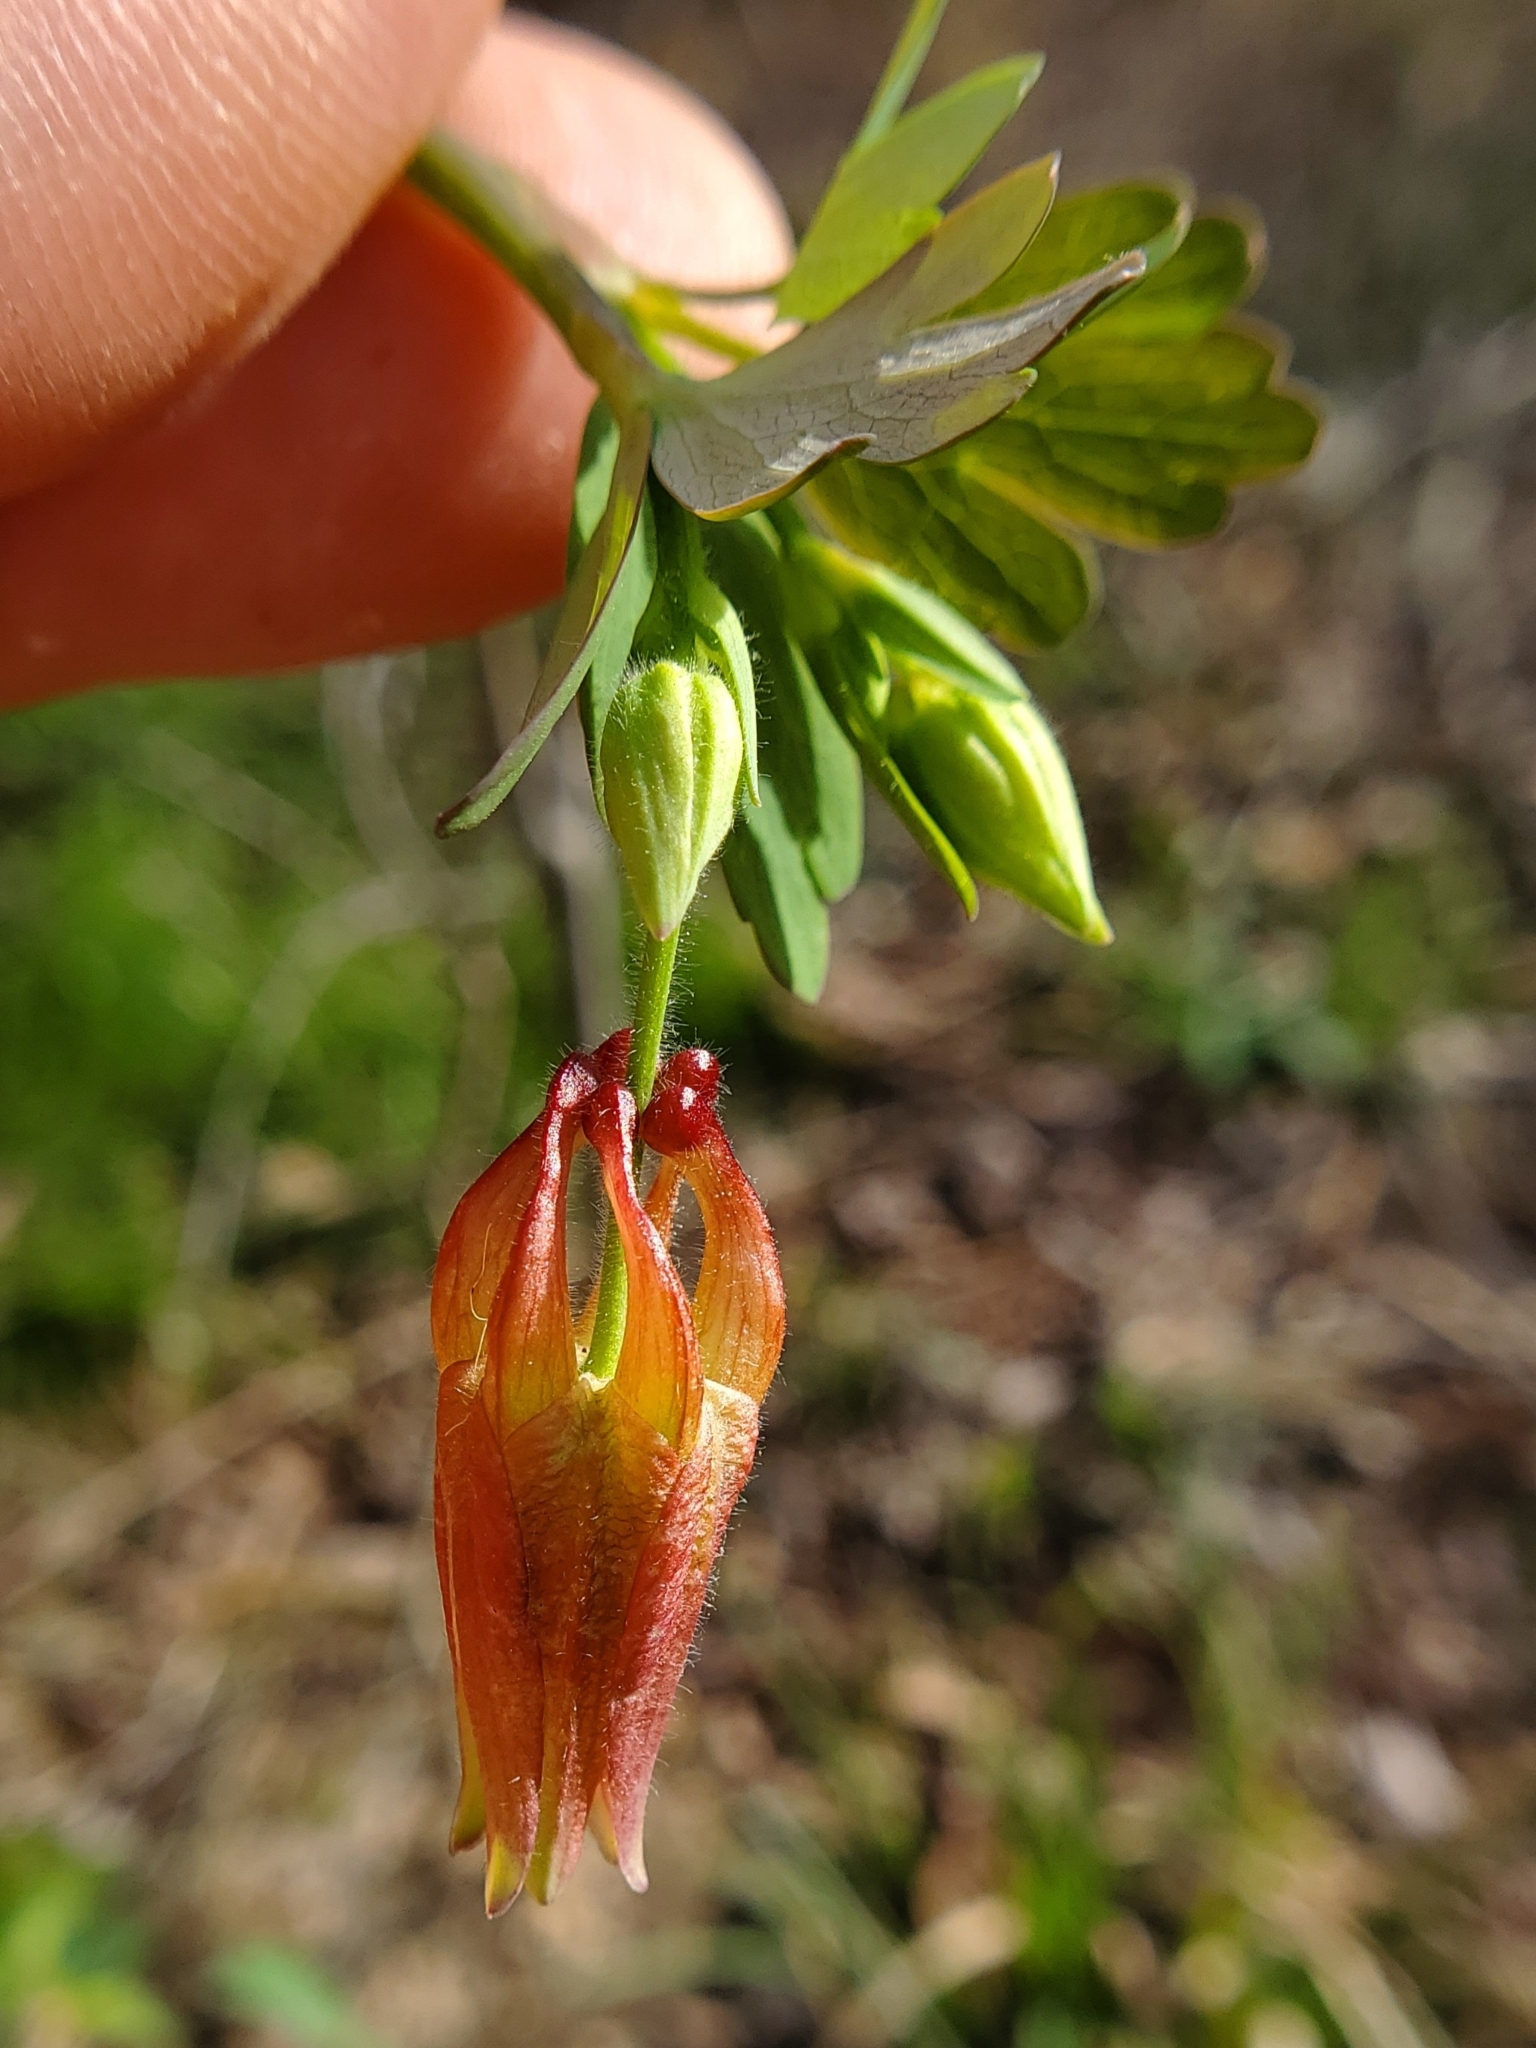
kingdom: Plantae
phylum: Tracheophyta
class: Magnoliopsida
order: Ranunculales
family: Ranunculaceae
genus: Aquilegia
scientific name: Aquilegia canadensis
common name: American columbine
